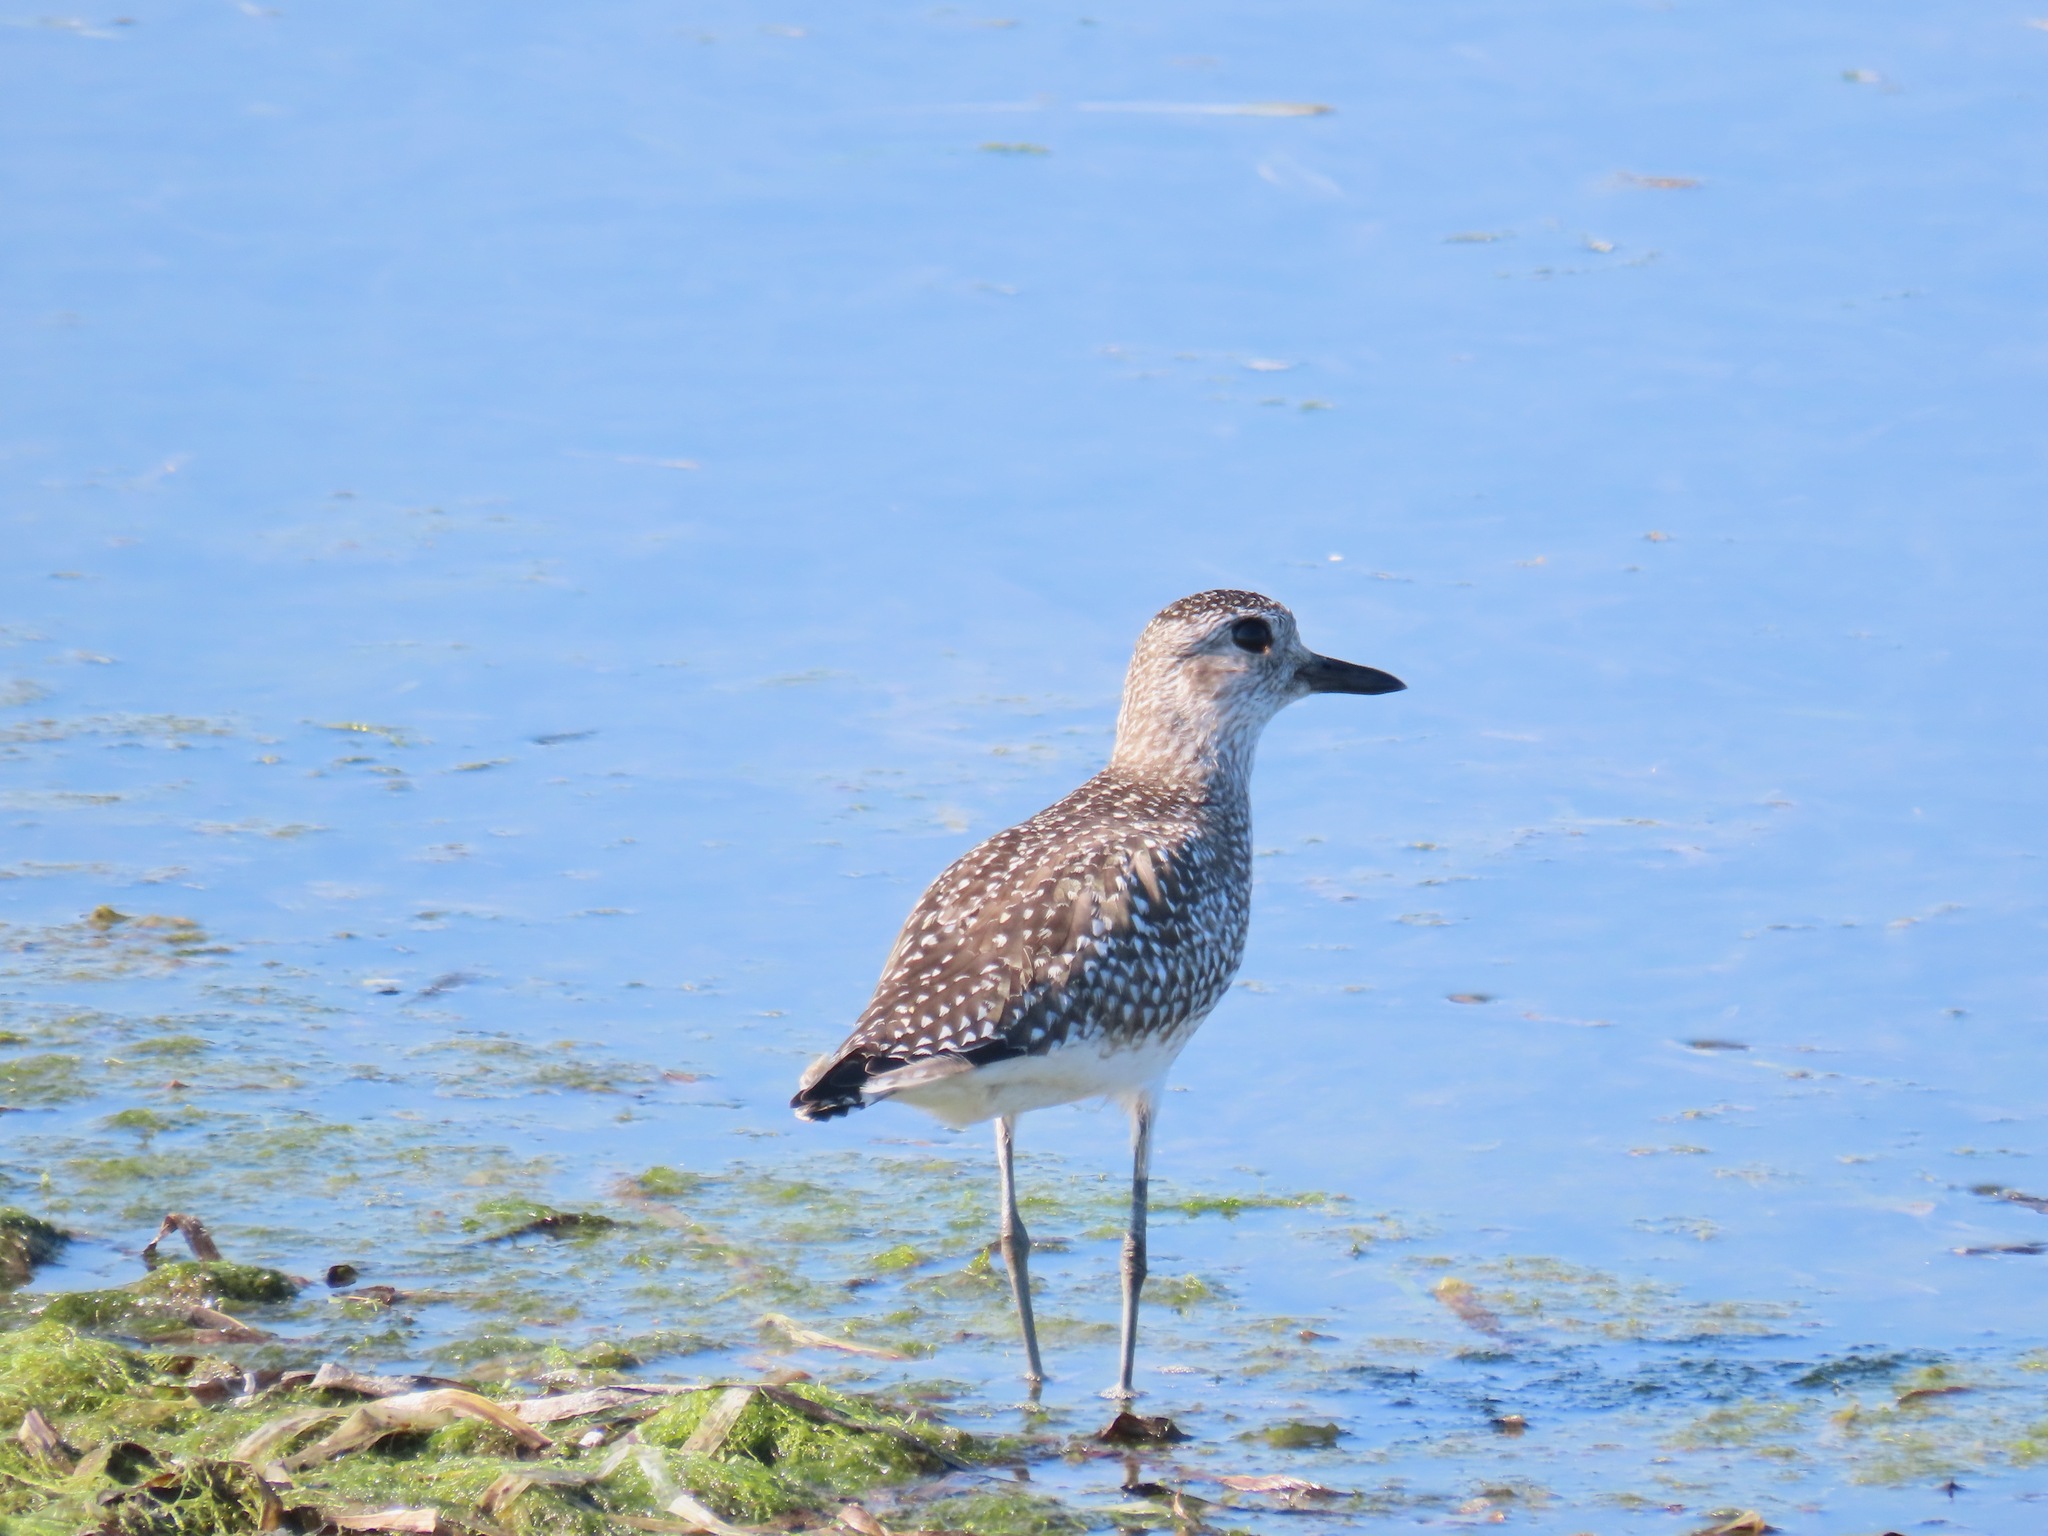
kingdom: Animalia
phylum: Chordata
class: Aves
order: Charadriiformes
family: Charadriidae
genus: Pluvialis
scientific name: Pluvialis squatarola
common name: Grey plover
